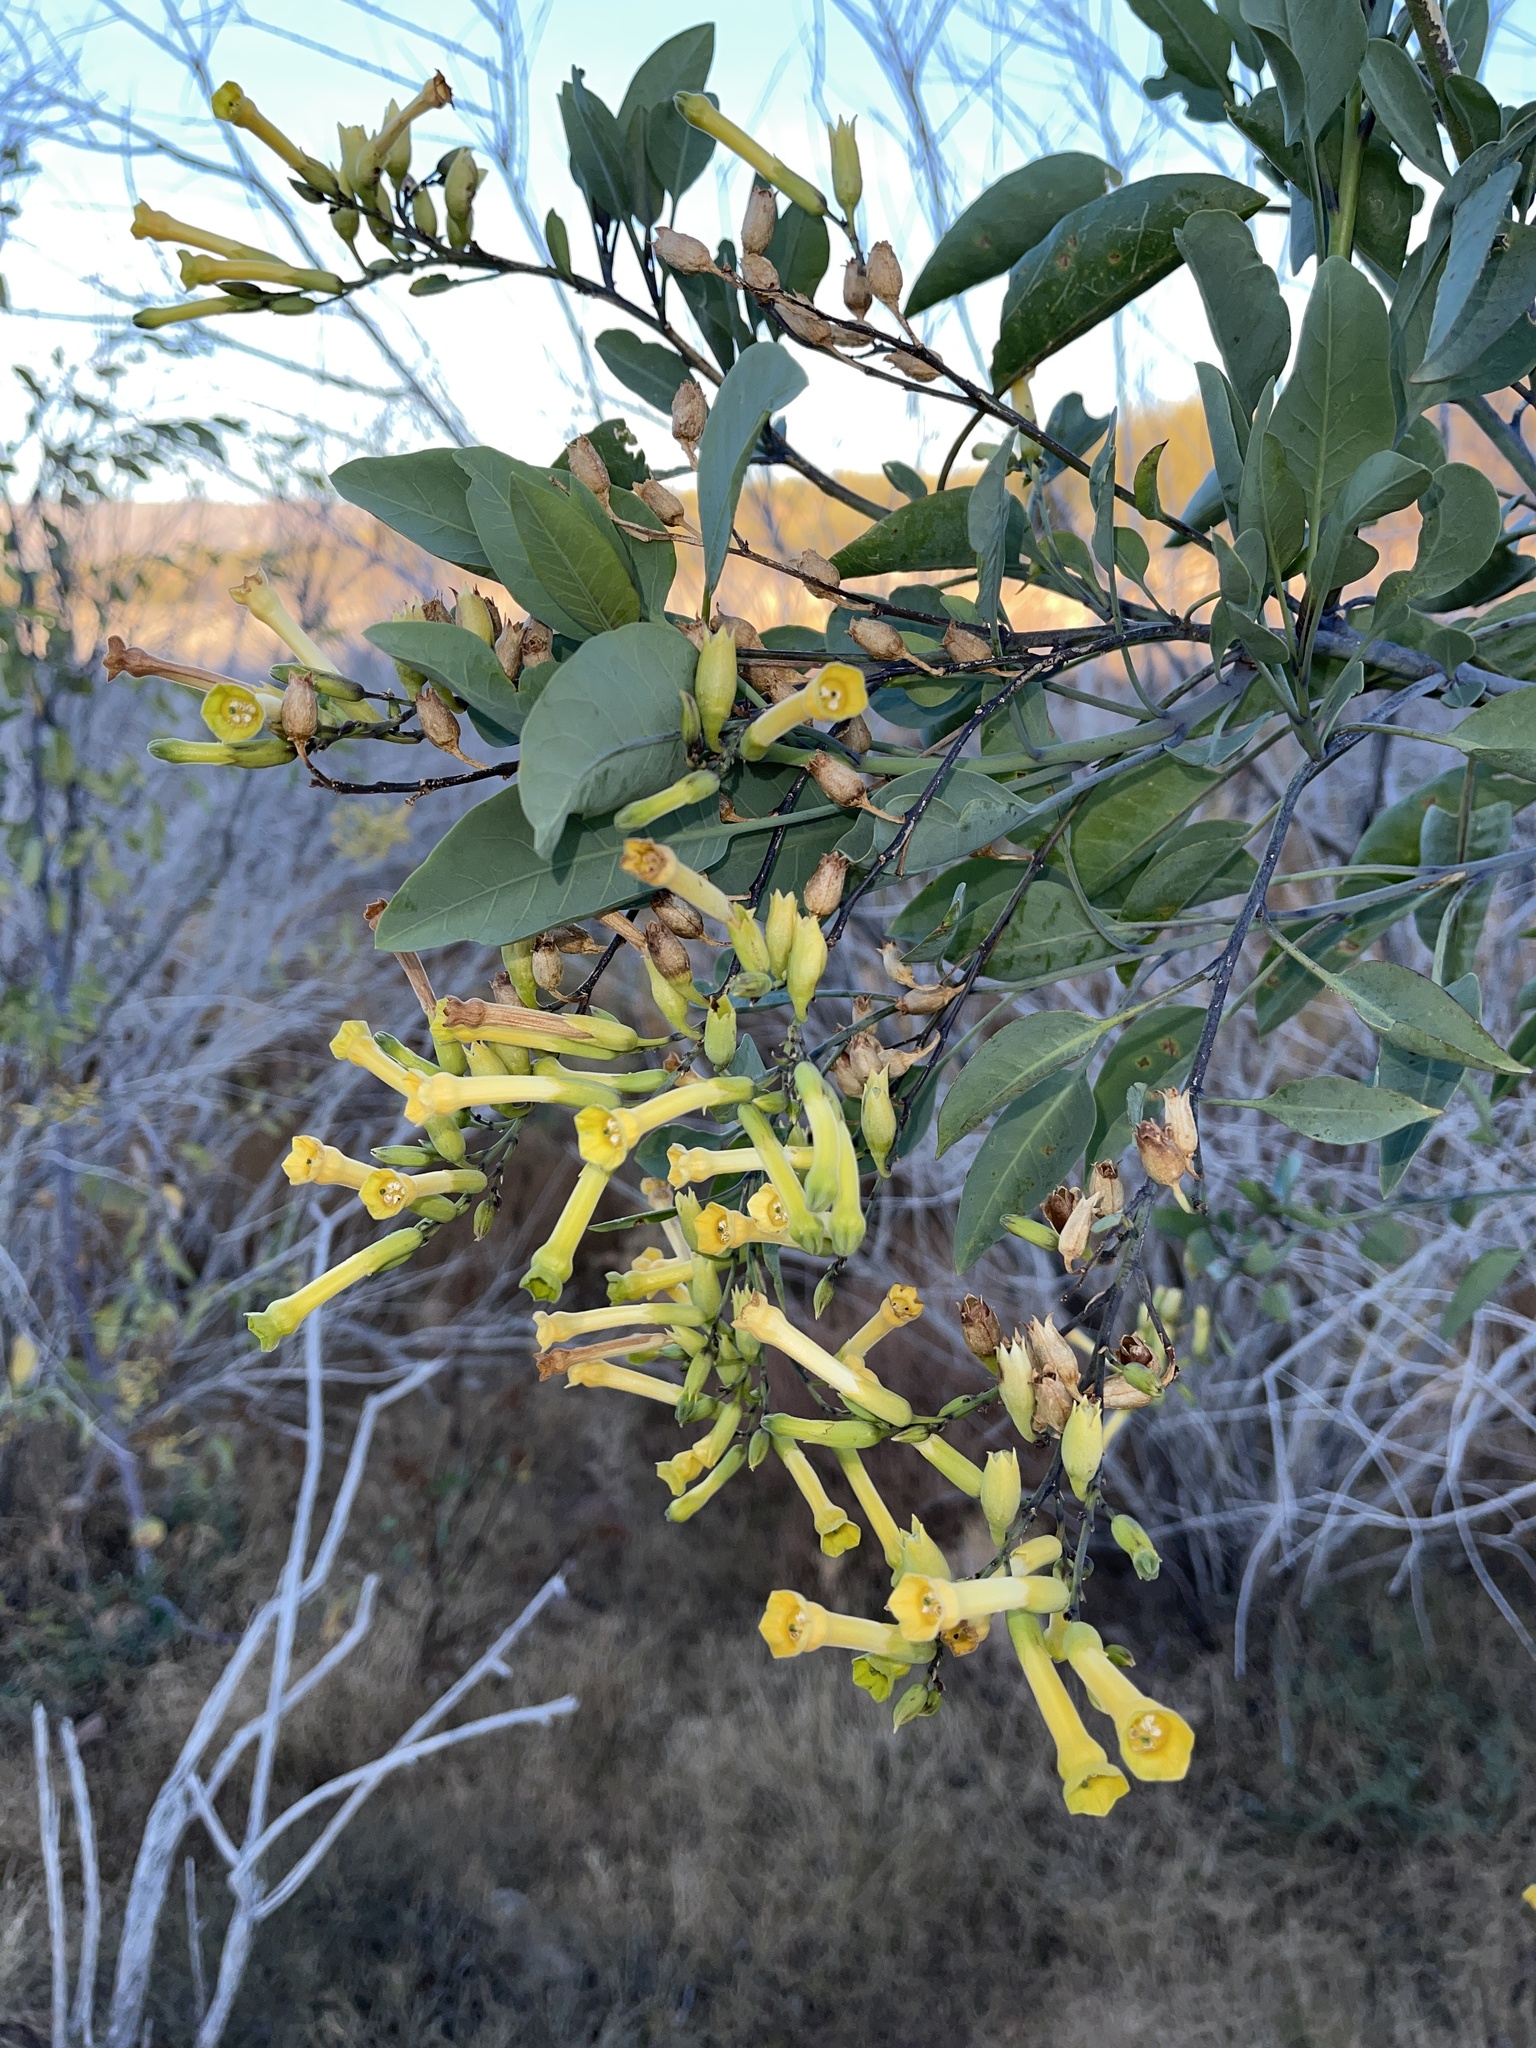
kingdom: Plantae
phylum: Tracheophyta
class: Magnoliopsida
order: Solanales
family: Solanaceae
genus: Nicotiana
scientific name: Nicotiana glauca
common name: Tree tobacco
